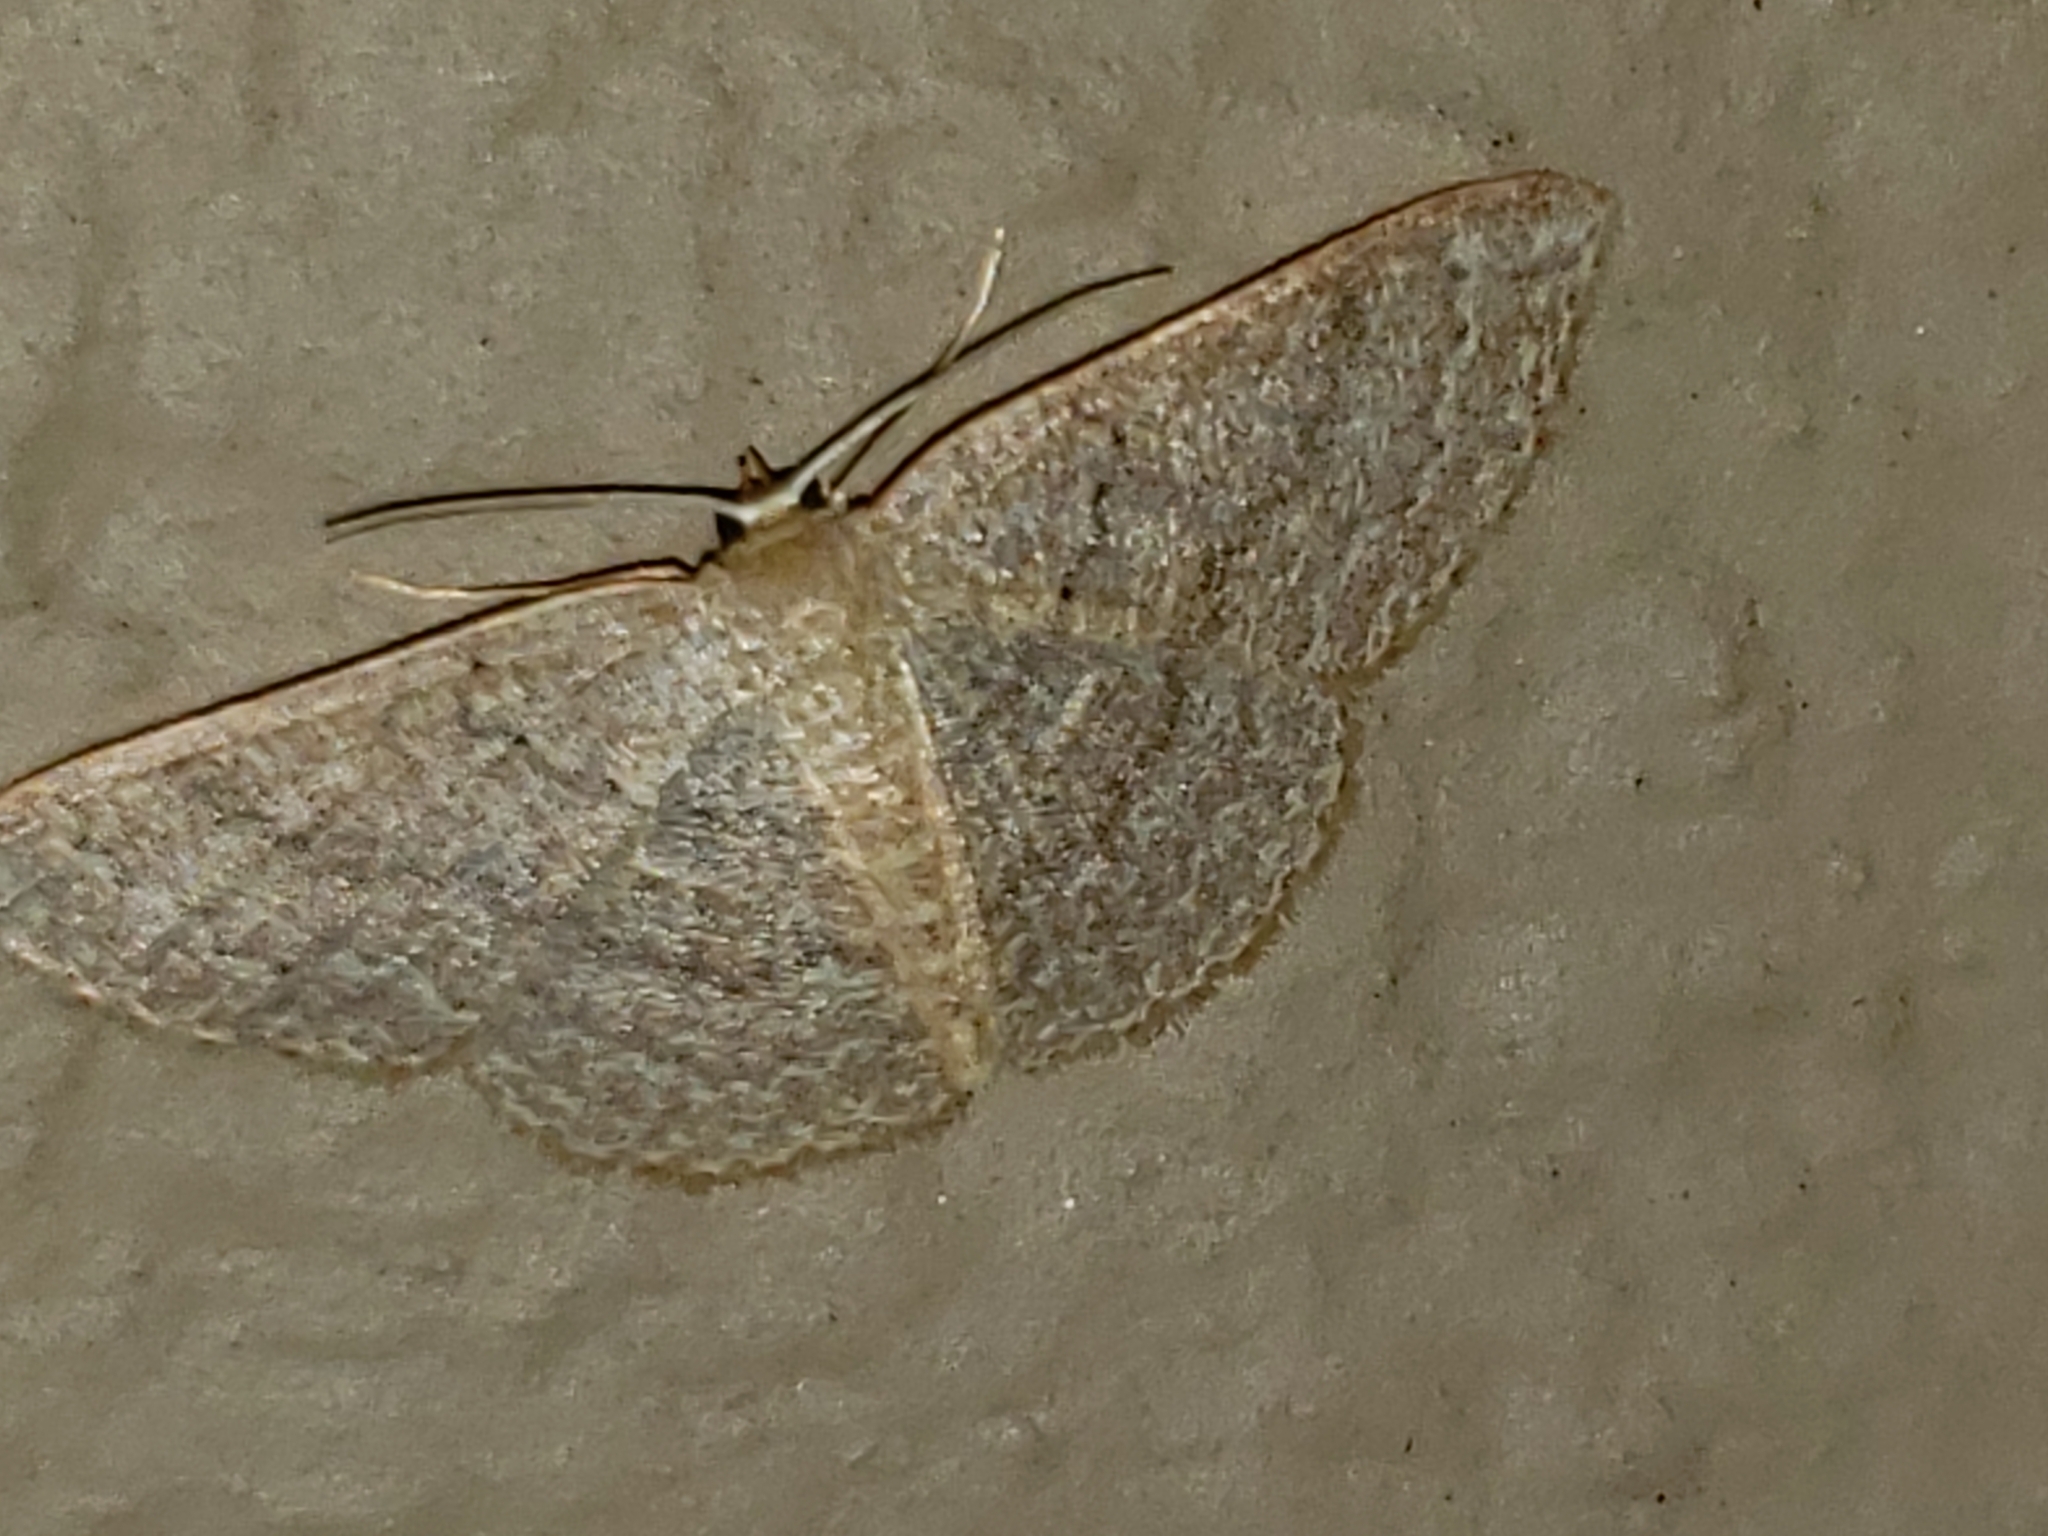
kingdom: Animalia
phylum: Arthropoda
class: Insecta
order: Lepidoptera
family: Geometridae
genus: Pleuroprucha
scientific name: Pleuroprucha insulsaria
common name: Common tan wave
